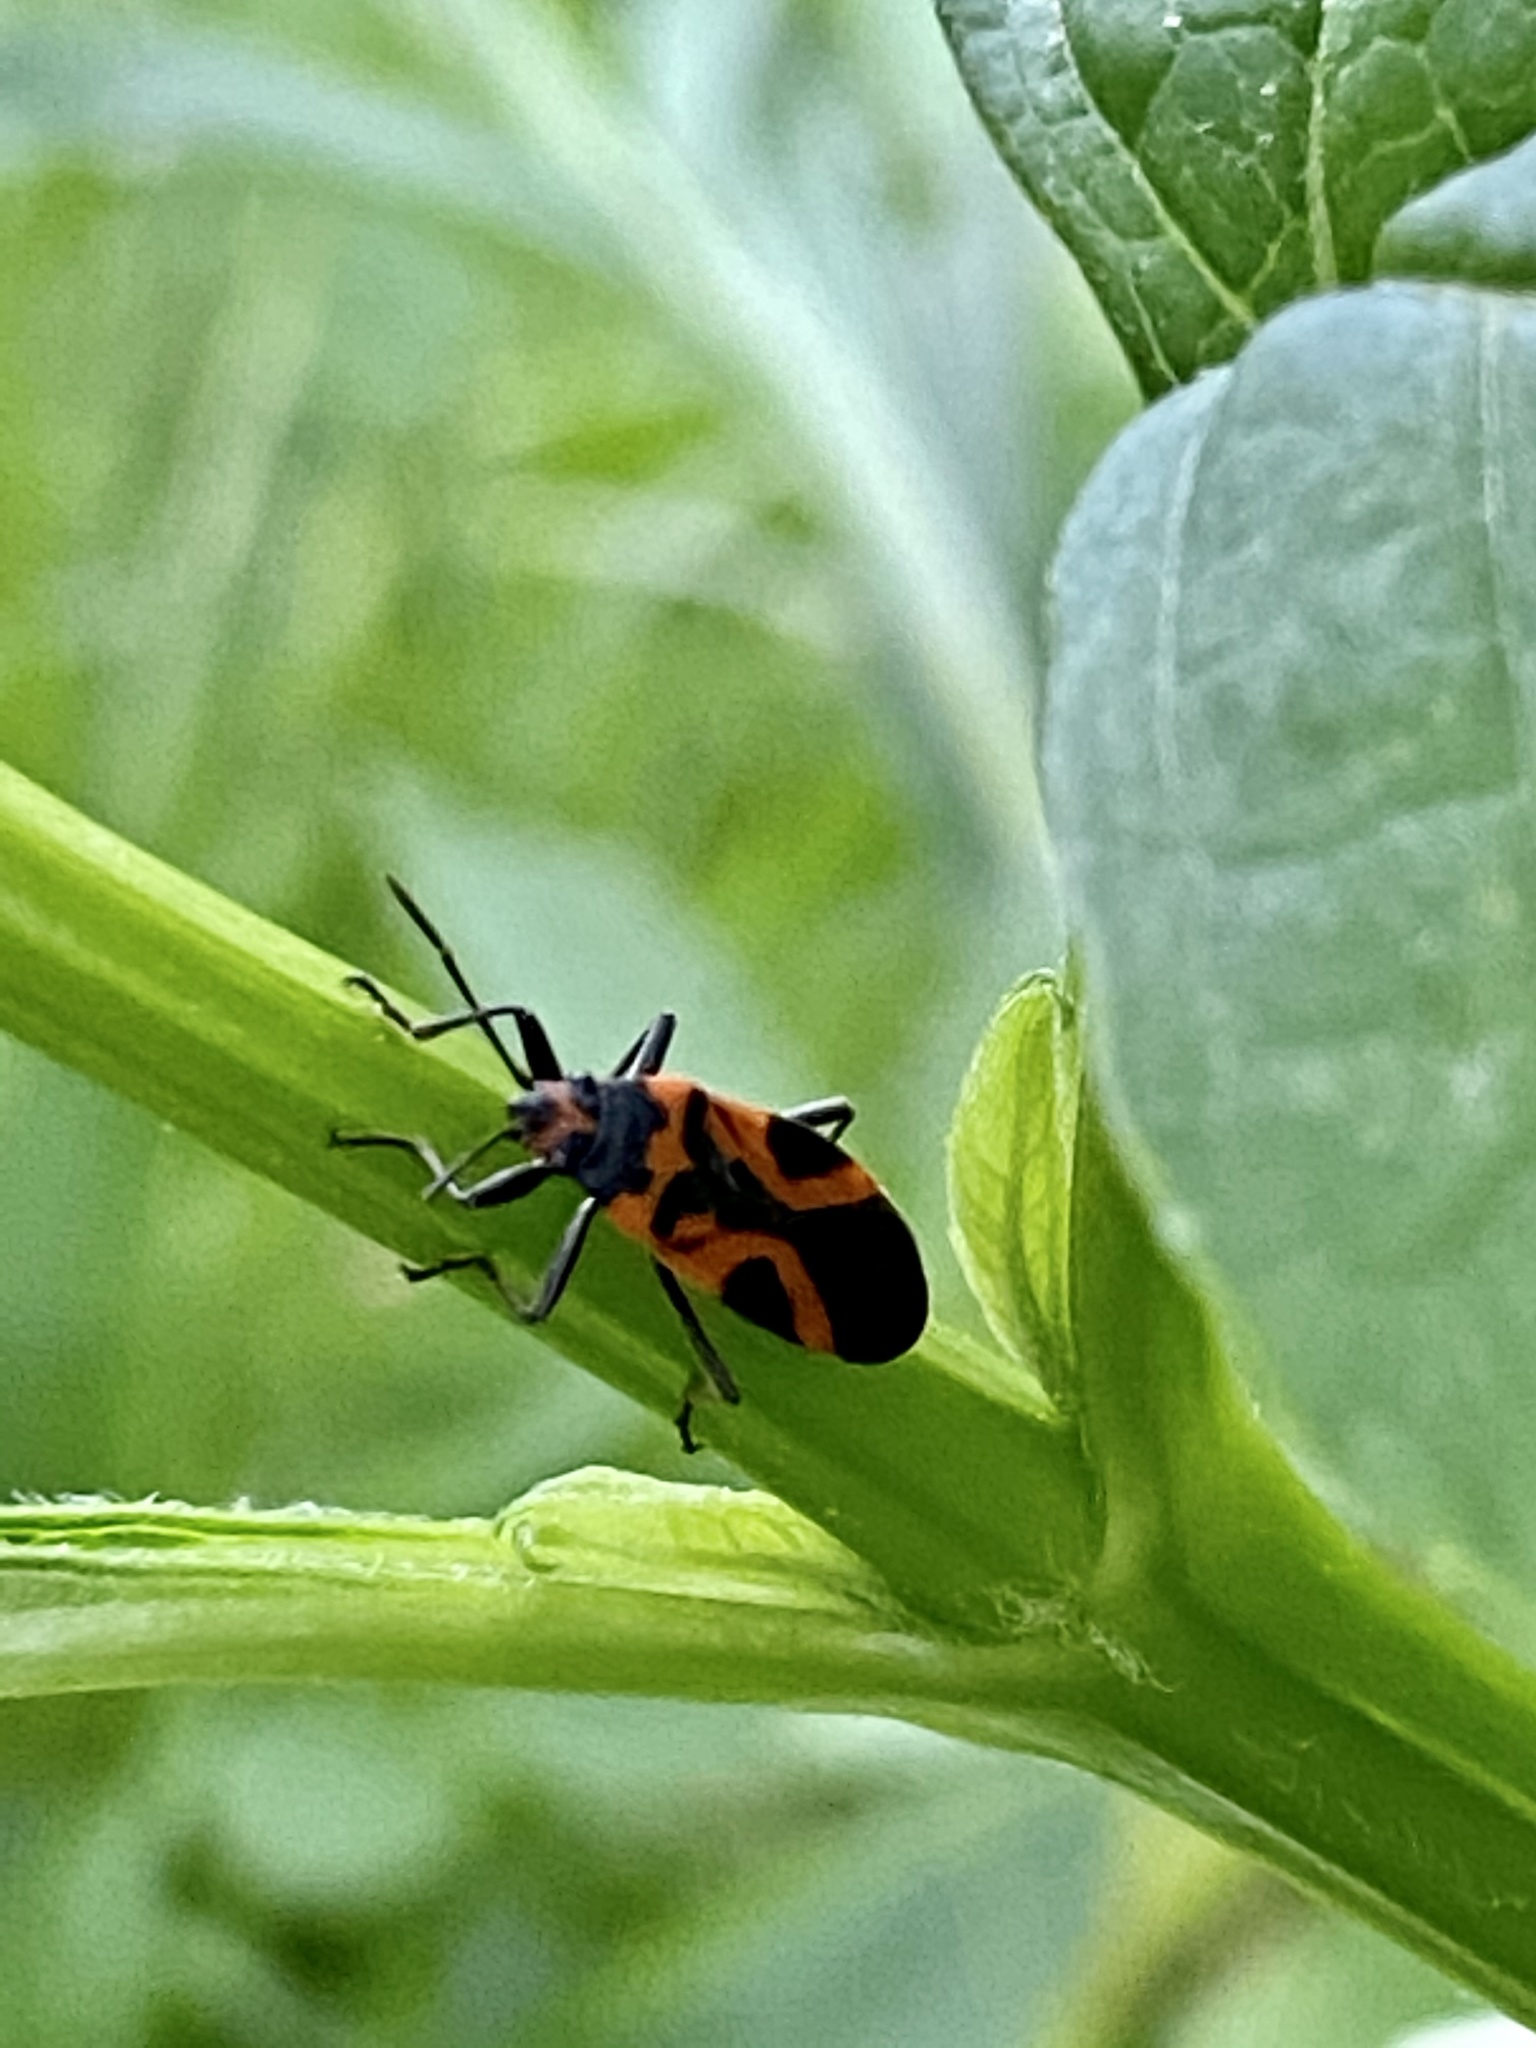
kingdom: Animalia
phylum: Arthropoda
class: Insecta
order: Hemiptera
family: Lygaeidae
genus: Lygaeus
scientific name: Lygaeus turcicus
